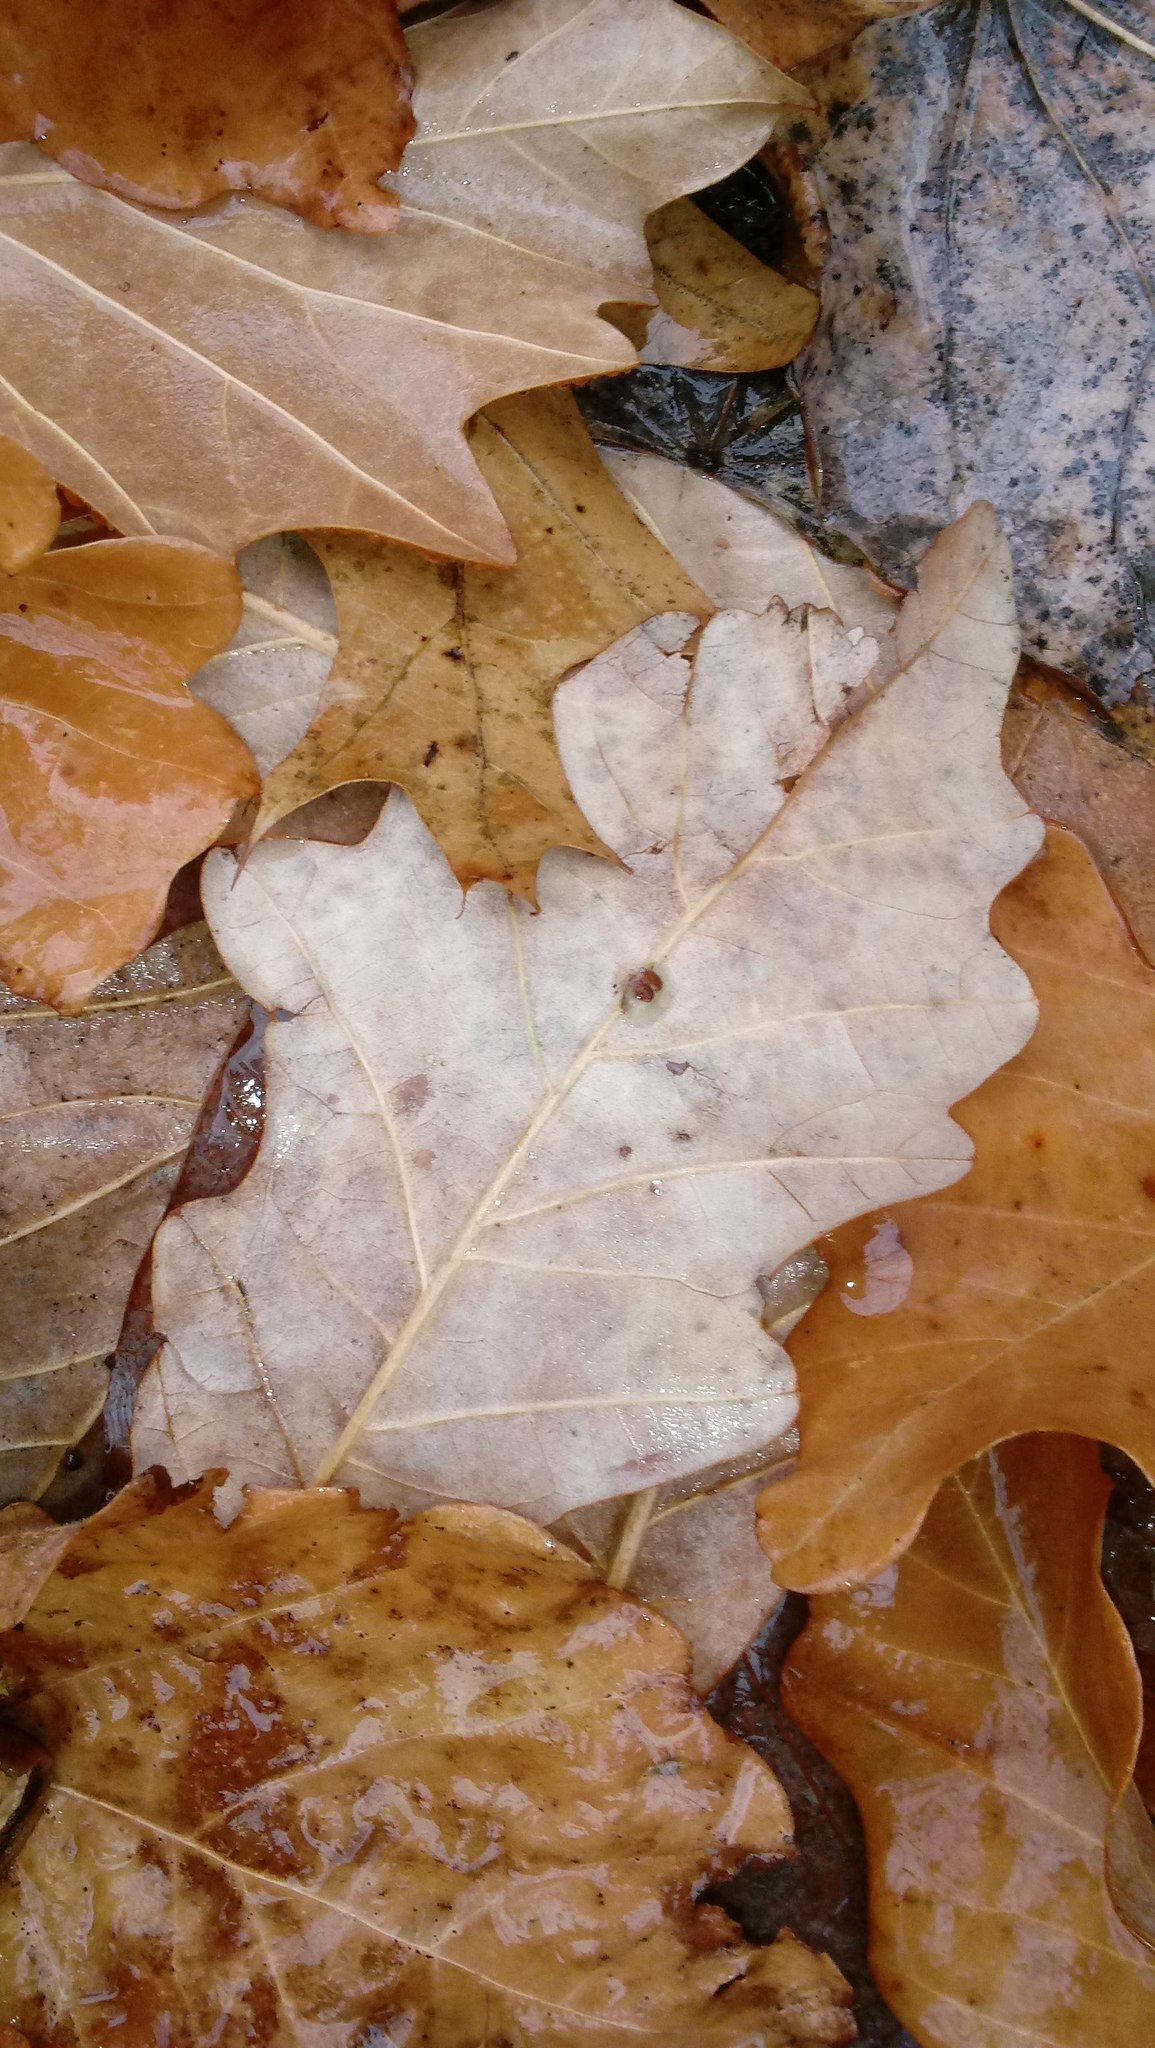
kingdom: Animalia
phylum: Arthropoda
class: Insecta
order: Hymenoptera
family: Cynipidae
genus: Andricus
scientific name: Andricus Druon ignotum
